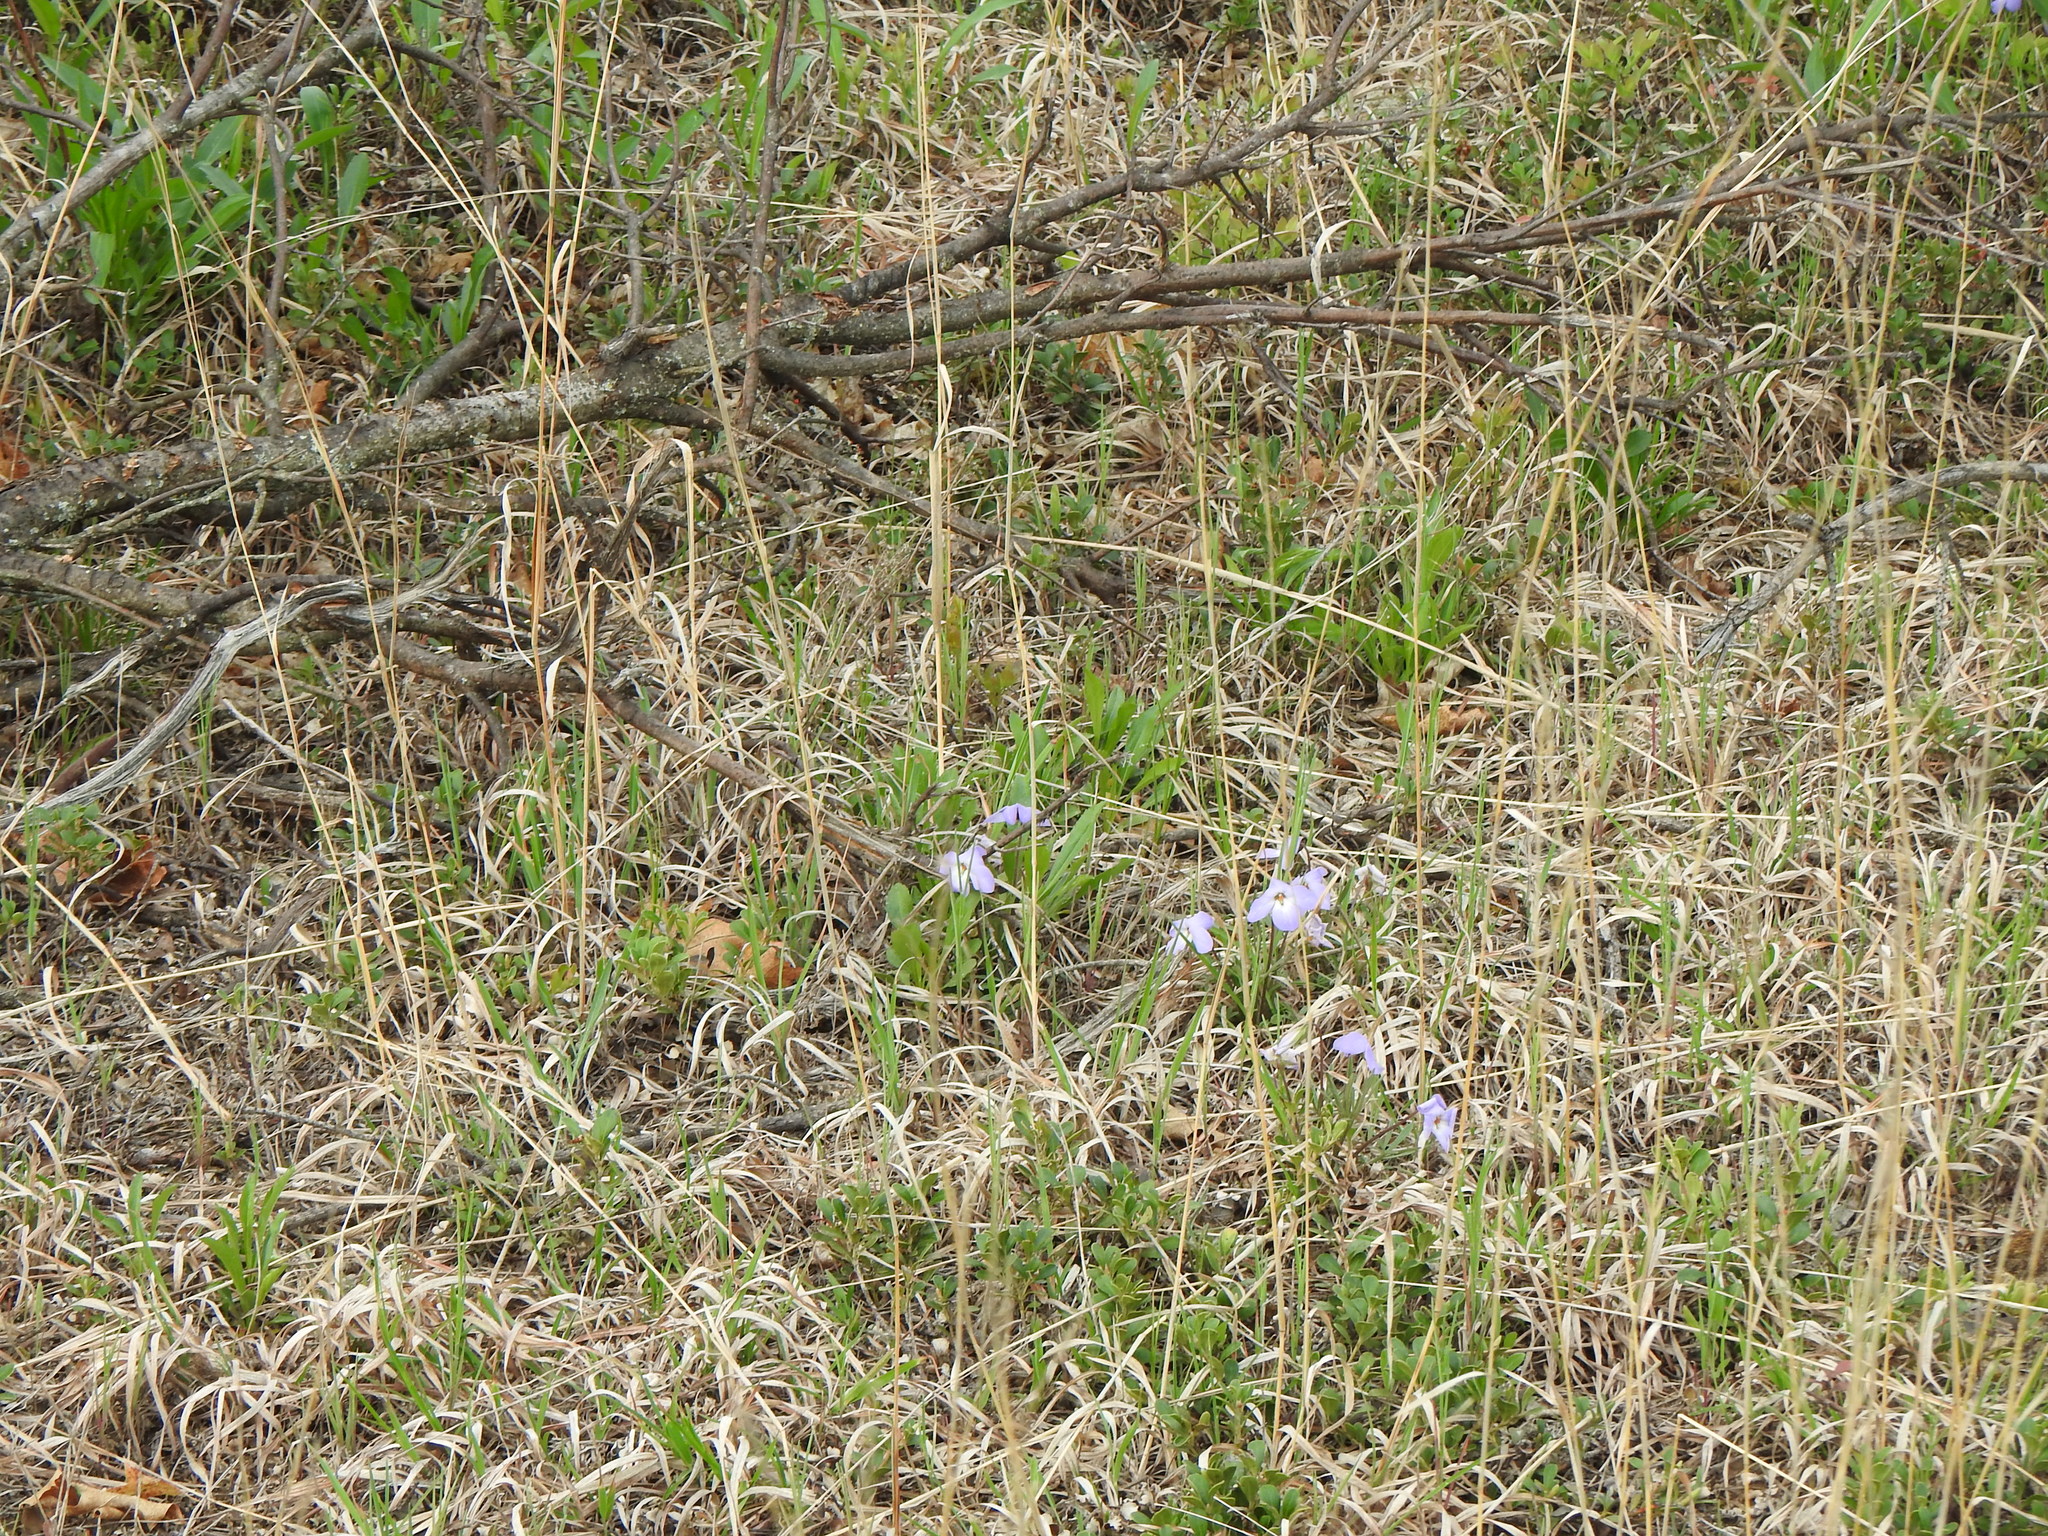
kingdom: Plantae
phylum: Tracheophyta
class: Magnoliopsida
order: Malpighiales
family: Violaceae
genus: Viola
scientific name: Viola pedata
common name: Pansy violet
